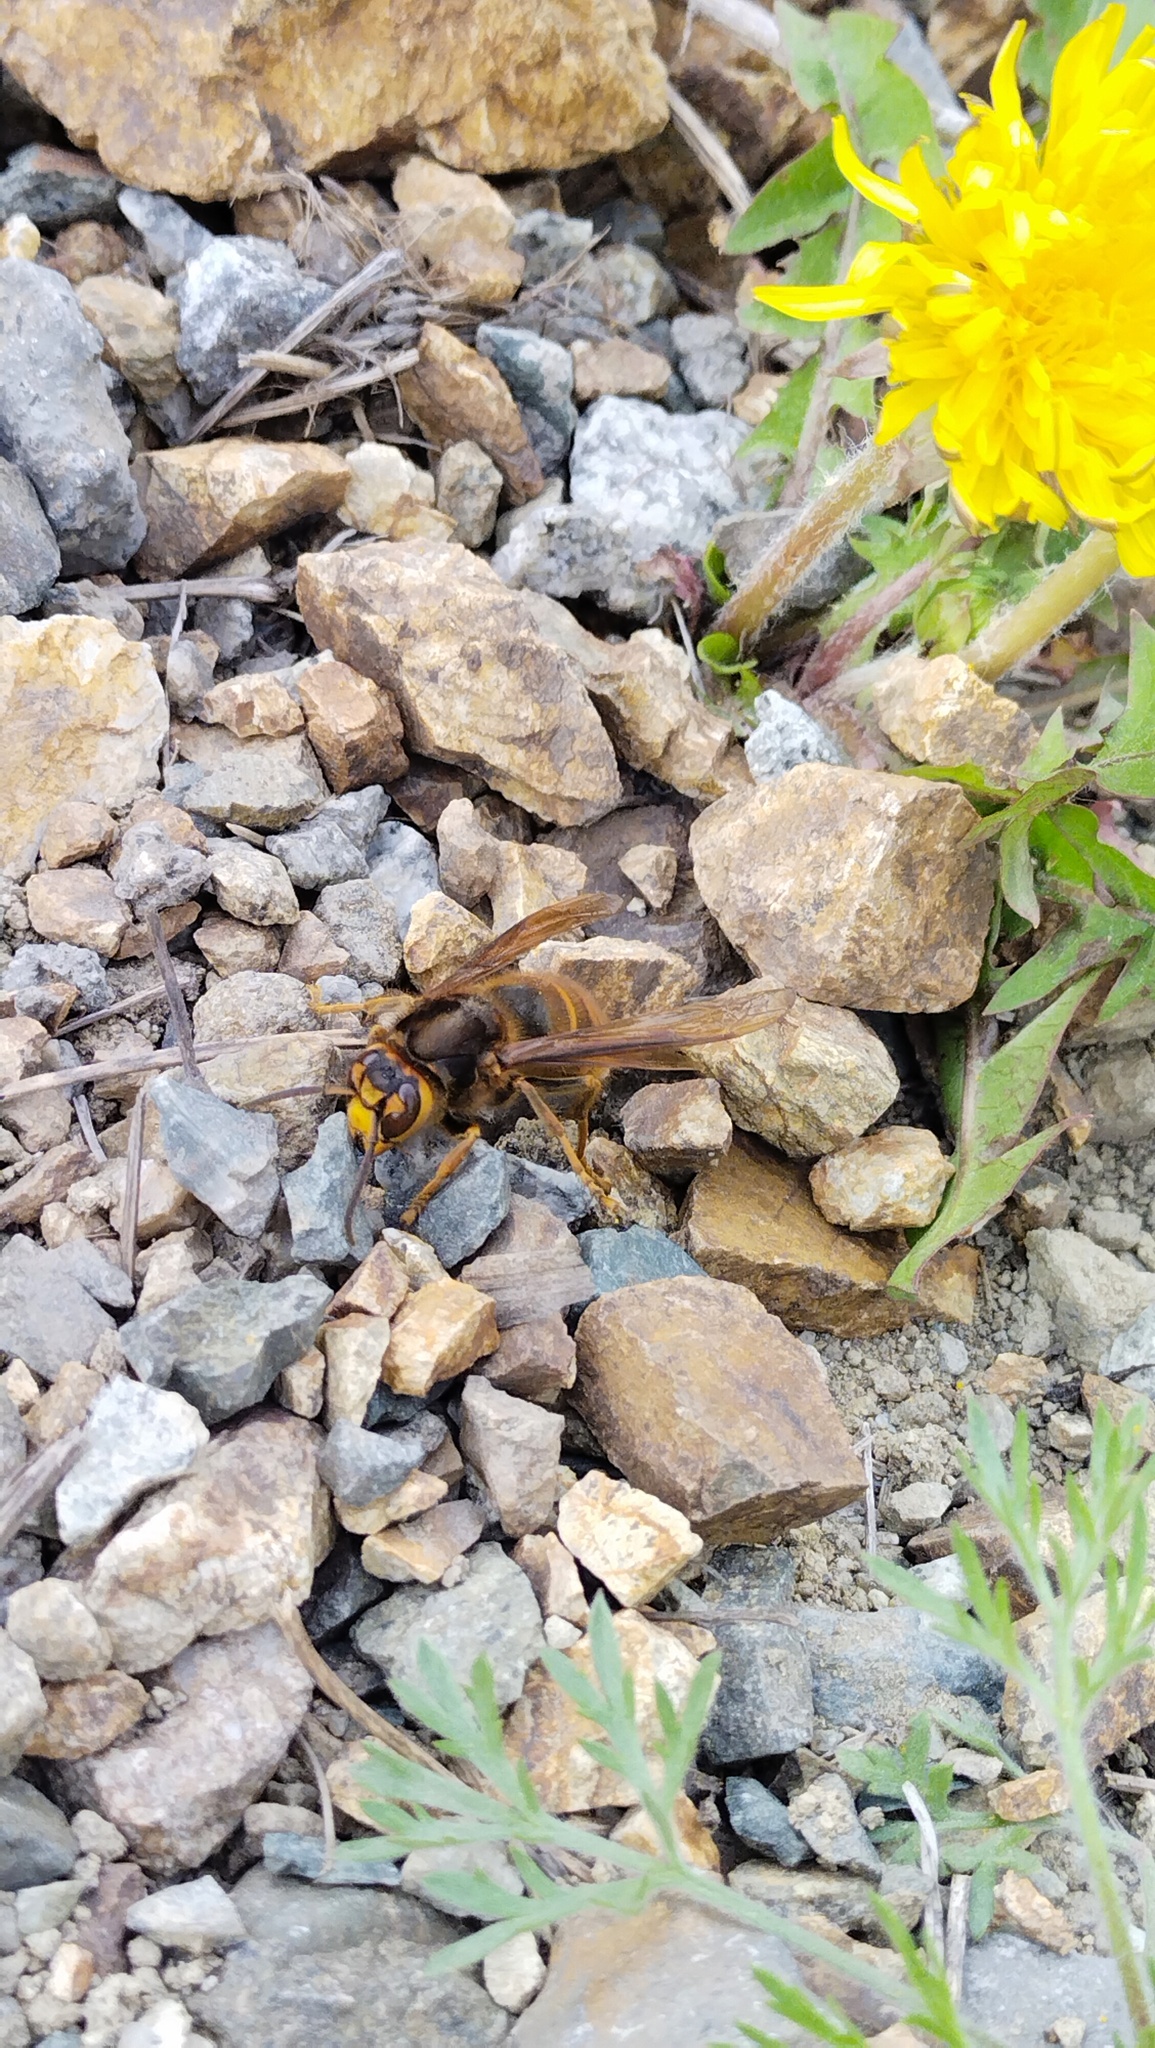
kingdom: Animalia
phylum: Arthropoda
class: Insecta
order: Hymenoptera
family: Vespidae
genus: Vespa
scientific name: Vespa simillima
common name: Vespid wasp
